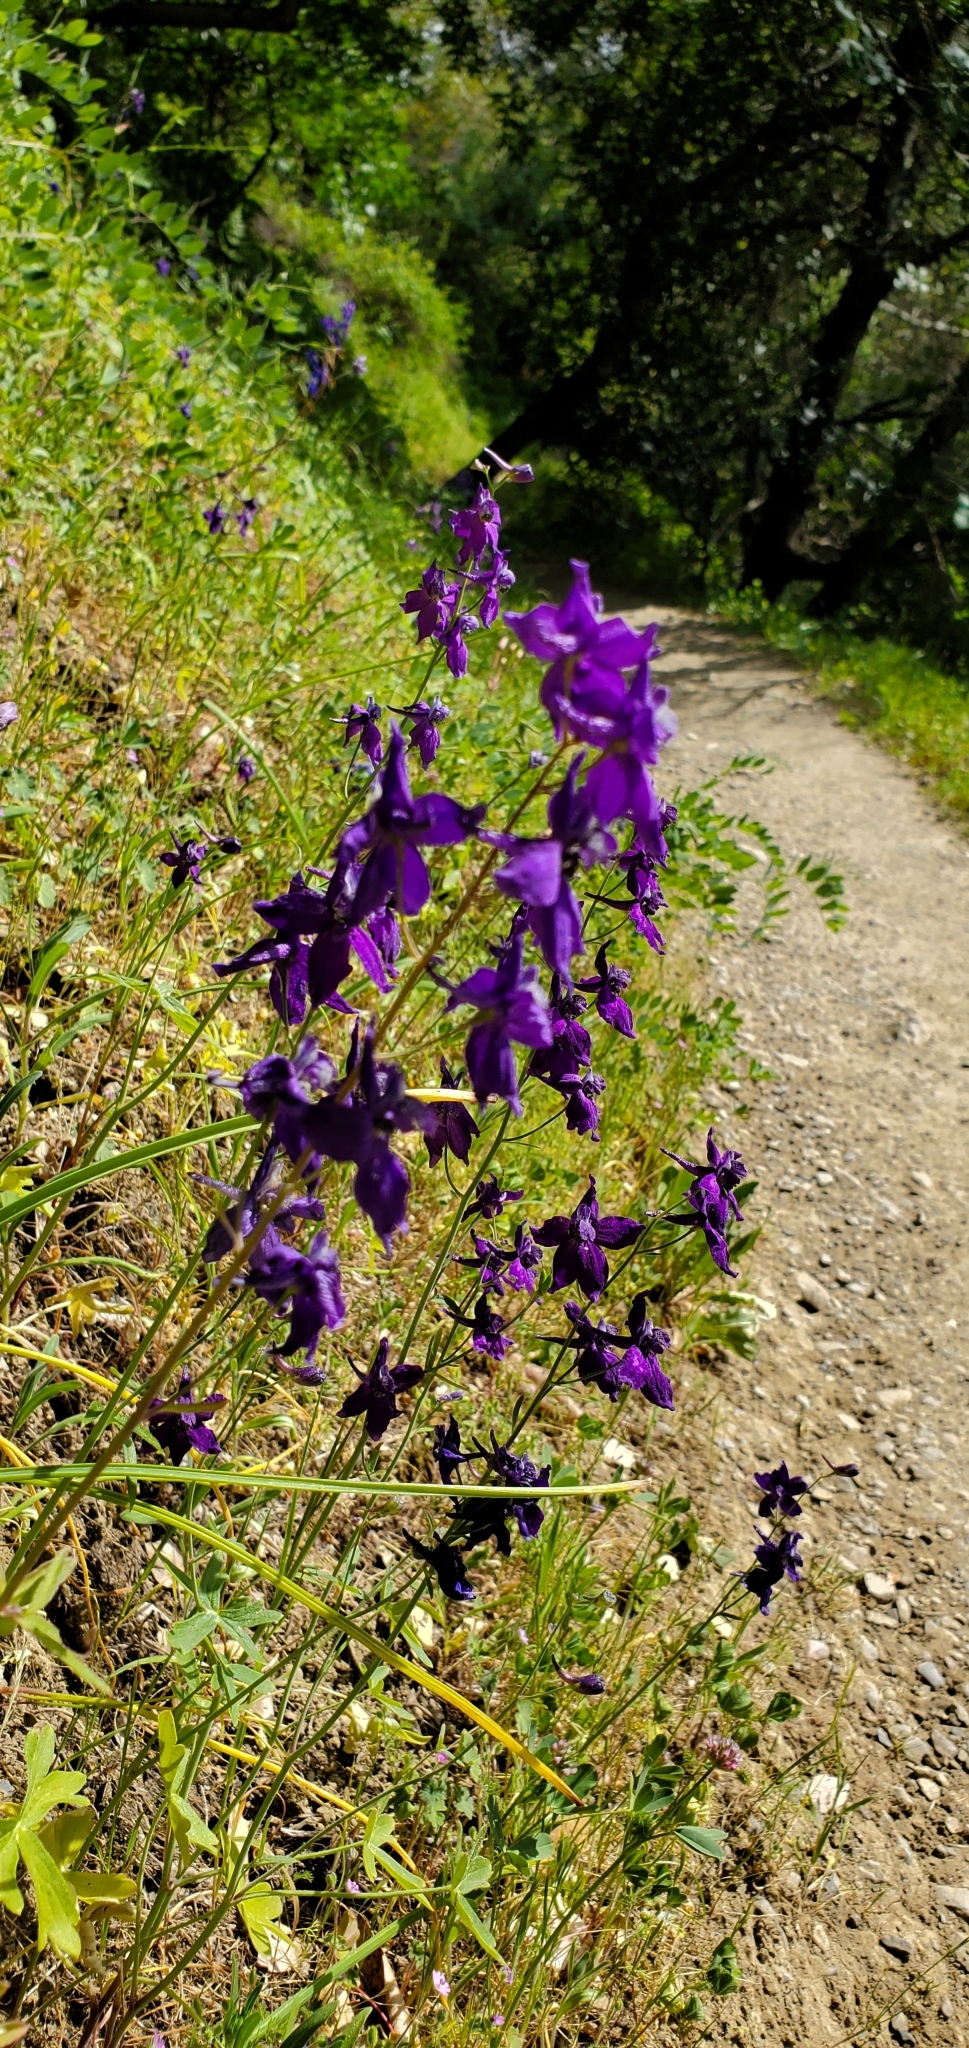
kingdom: Plantae
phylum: Tracheophyta
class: Magnoliopsida
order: Ranunculales
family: Ranunculaceae
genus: Delphinium
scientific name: Delphinium patens
